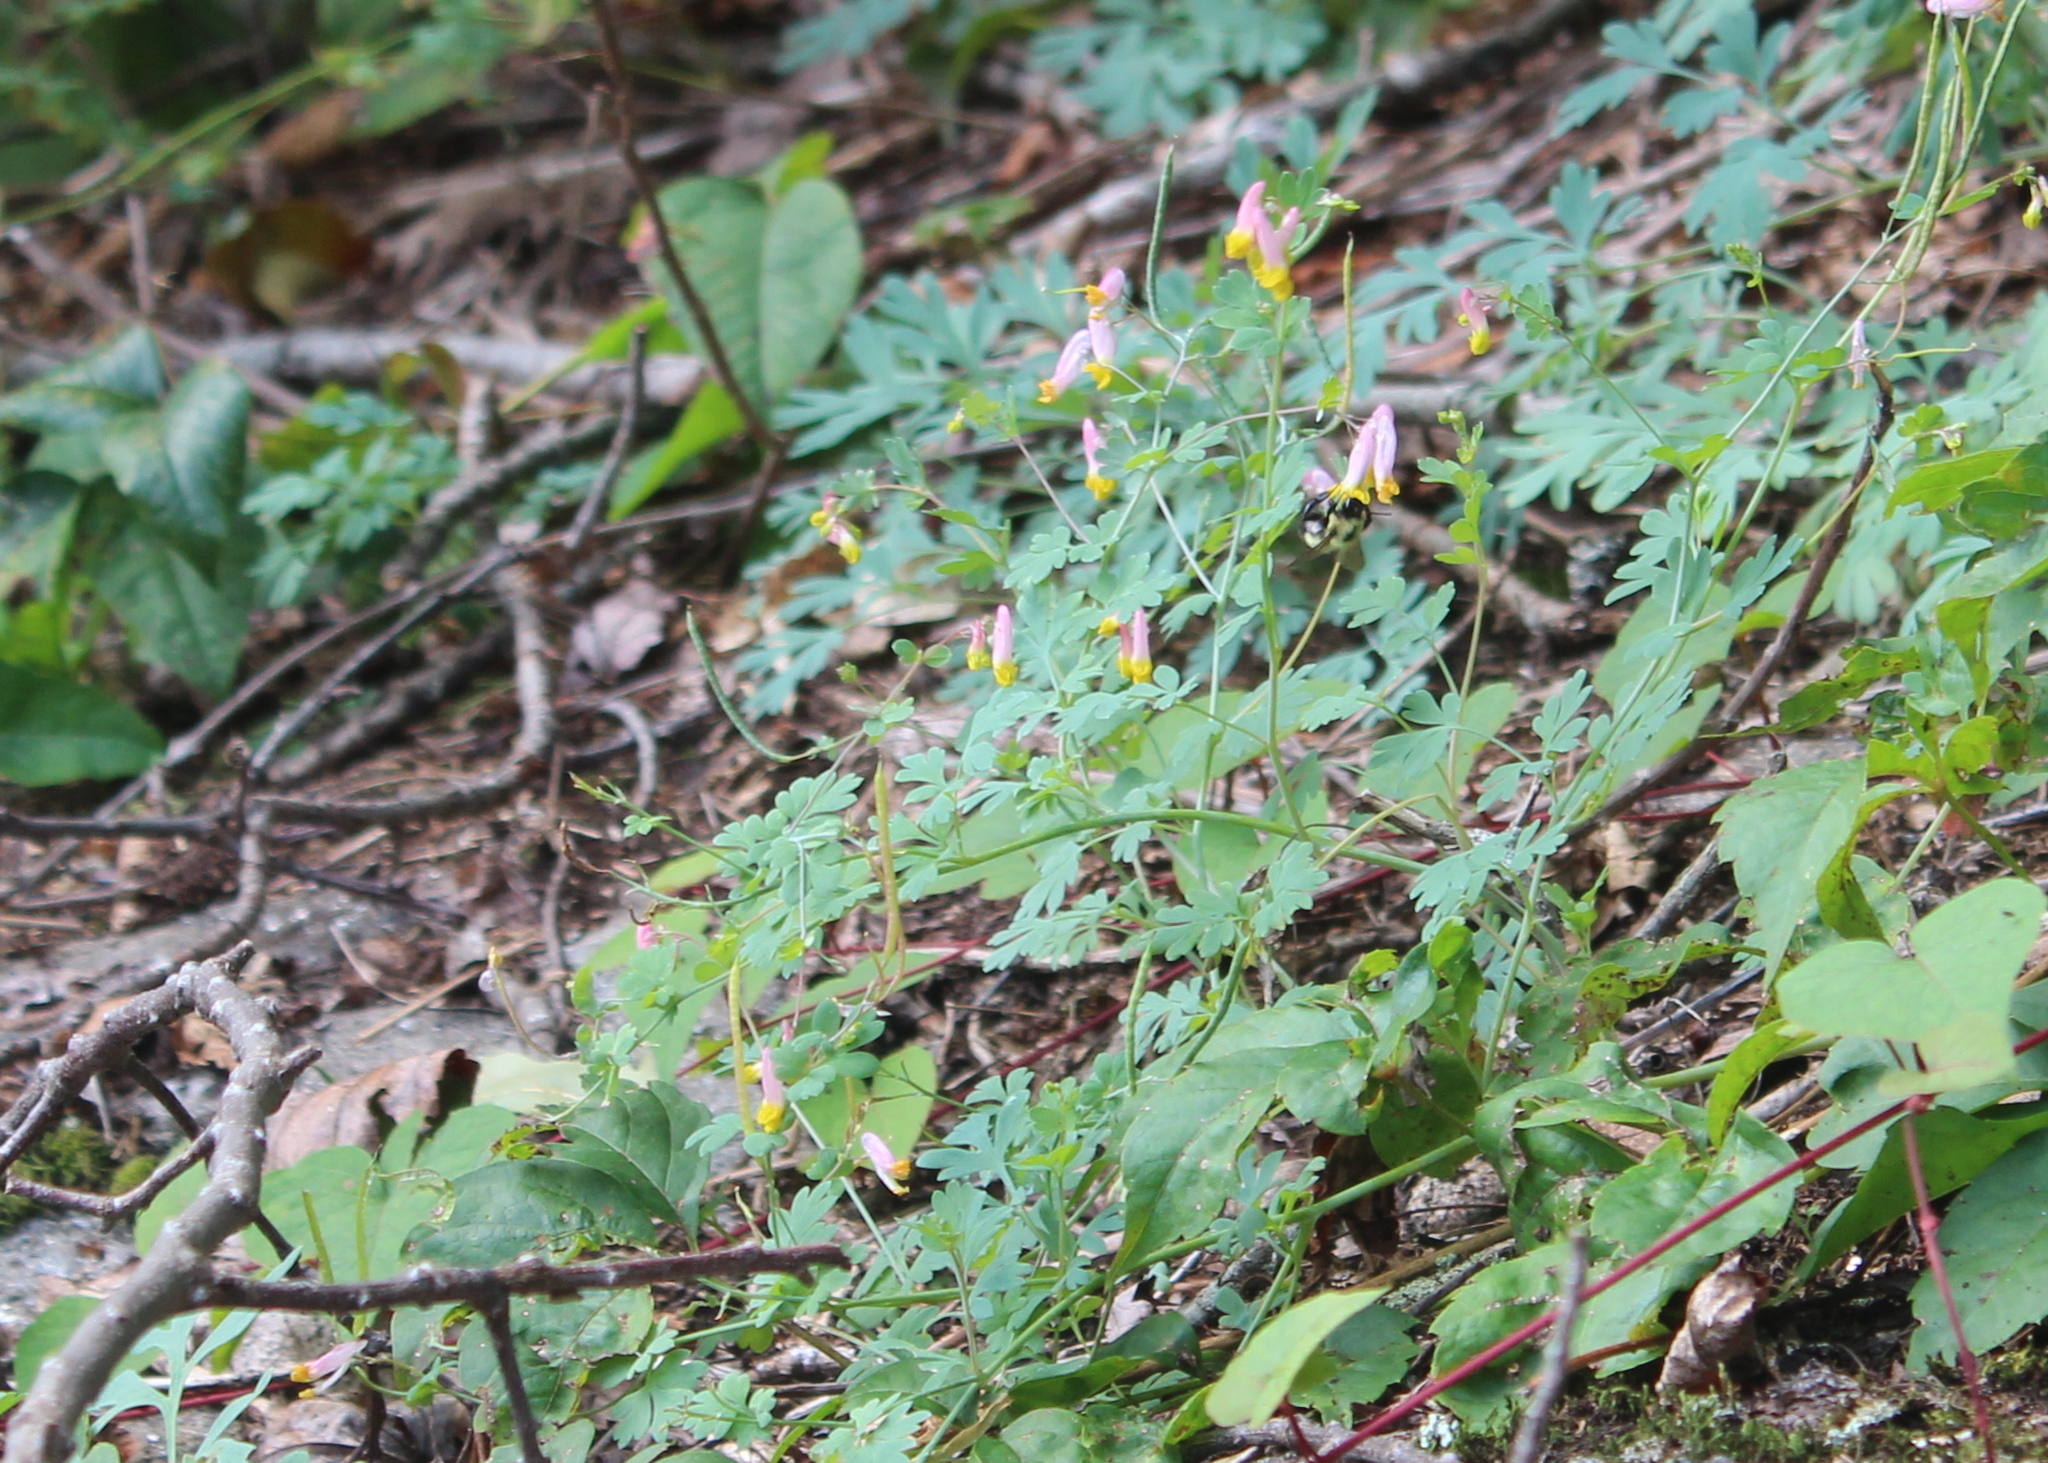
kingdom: Plantae
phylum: Tracheophyta
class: Magnoliopsida
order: Ranunculales
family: Papaveraceae
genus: Capnoides
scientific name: Capnoides sempervirens
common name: Rock harlequin
